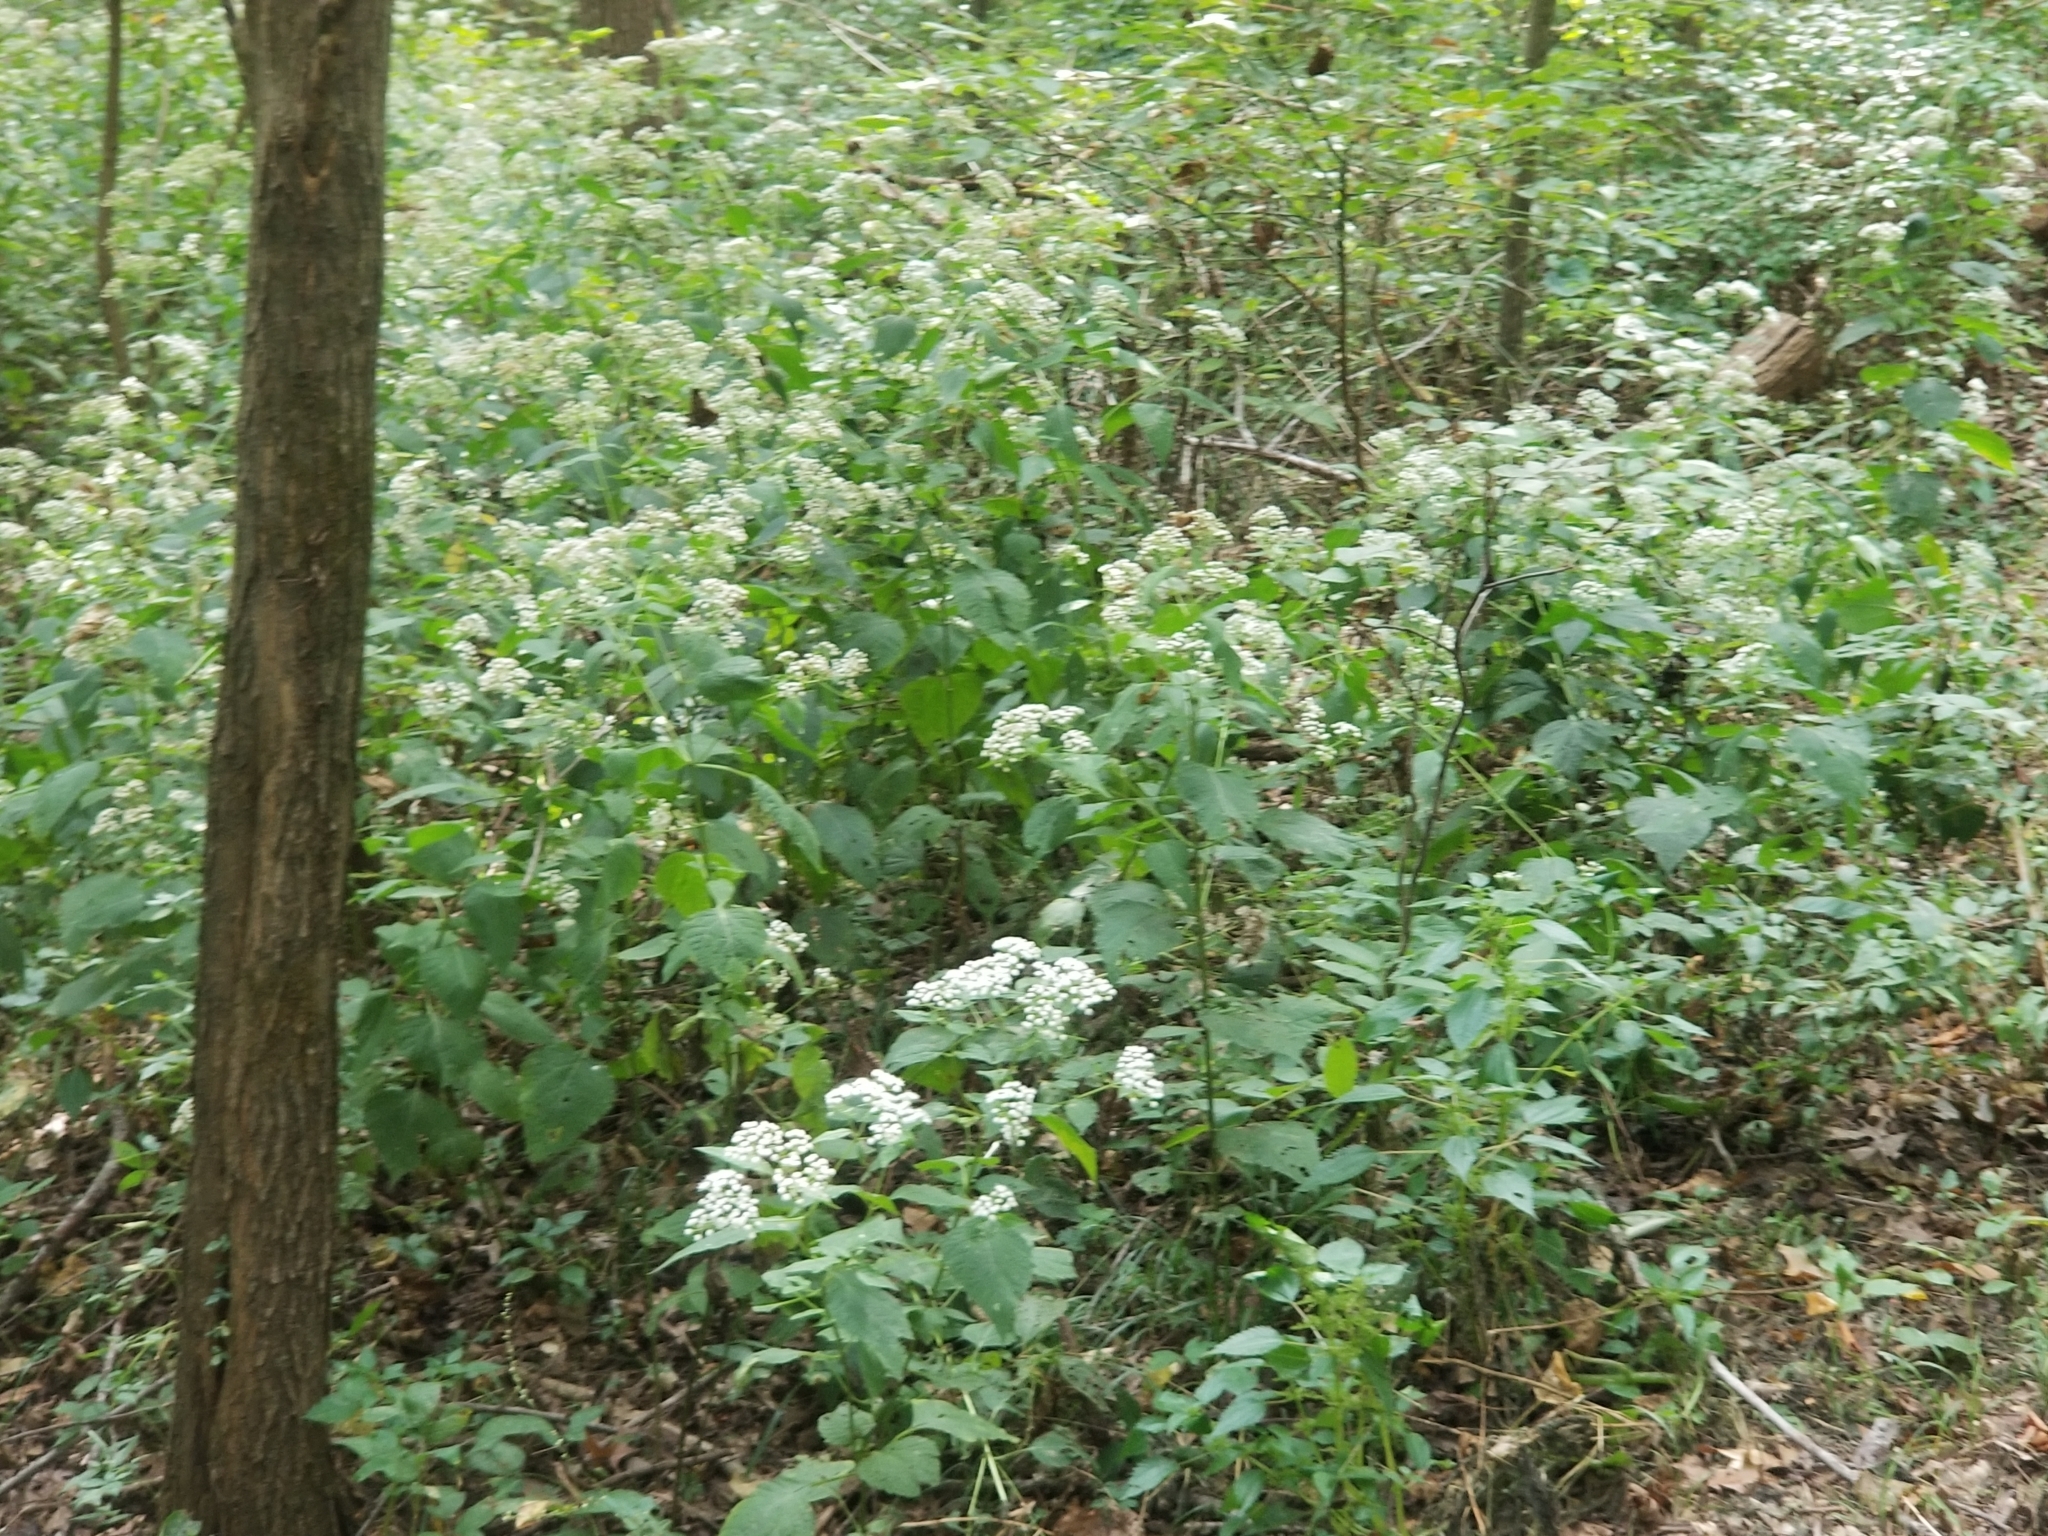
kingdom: Plantae
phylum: Tracheophyta
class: Magnoliopsida
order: Asterales
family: Asteraceae
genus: Ageratina
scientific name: Ageratina altissima
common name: White snakeroot
